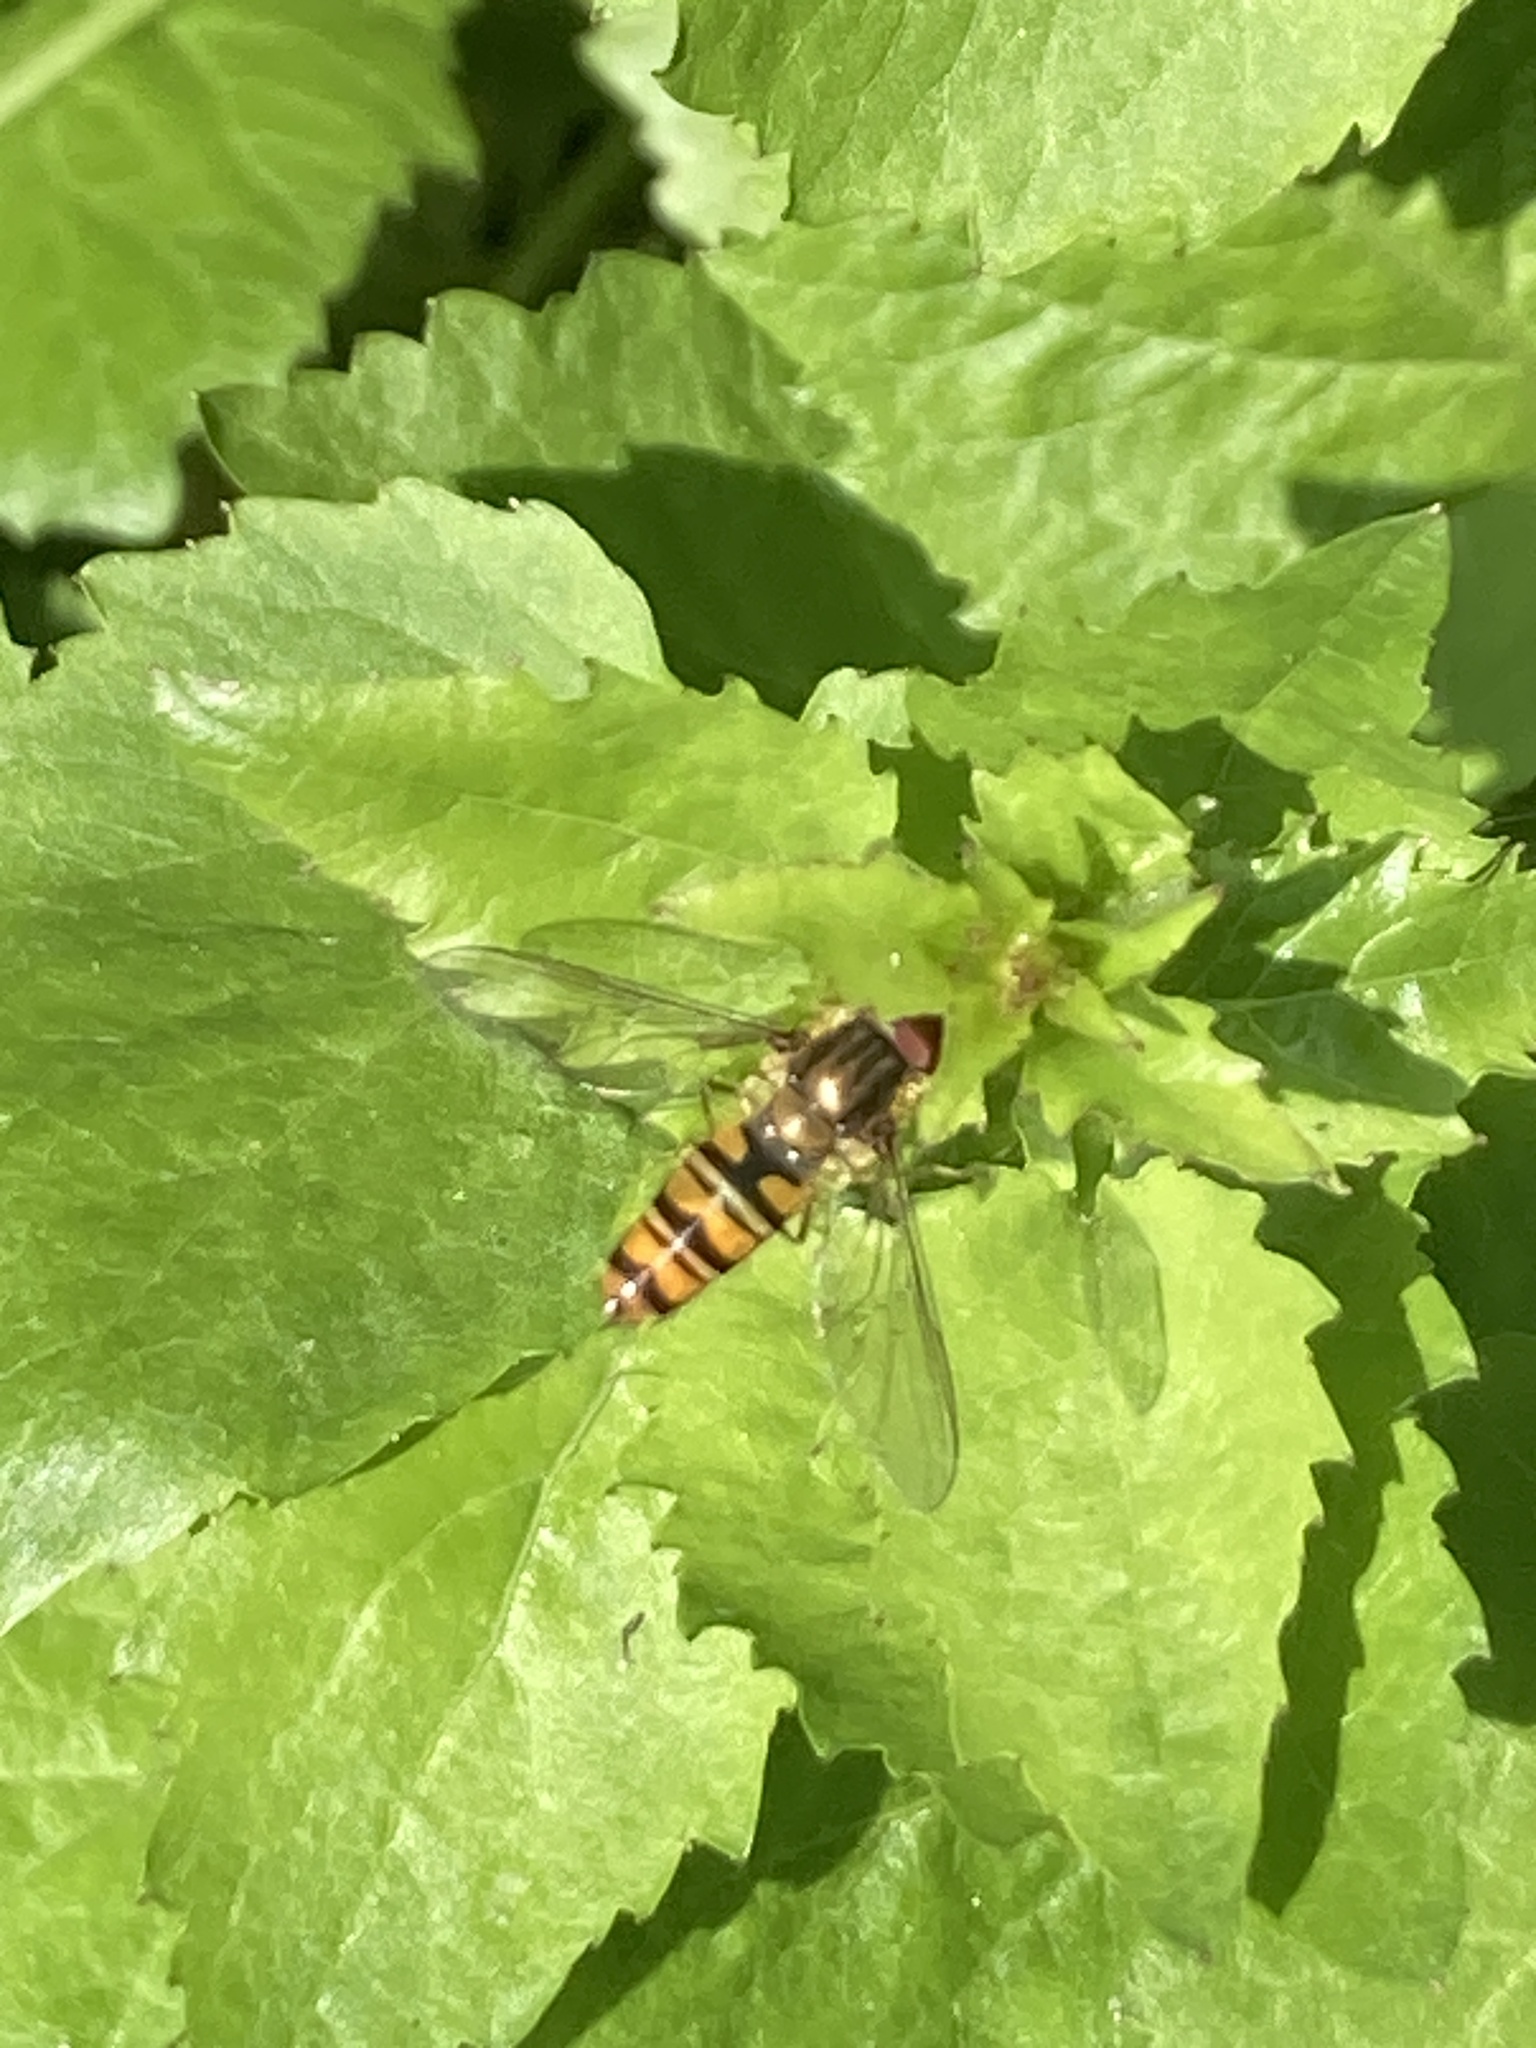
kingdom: Animalia
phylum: Arthropoda
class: Insecta
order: Diptera
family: Syrphidae
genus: Episyrphus
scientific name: Episyrphus balteatus
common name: Marmalade hoverfly
